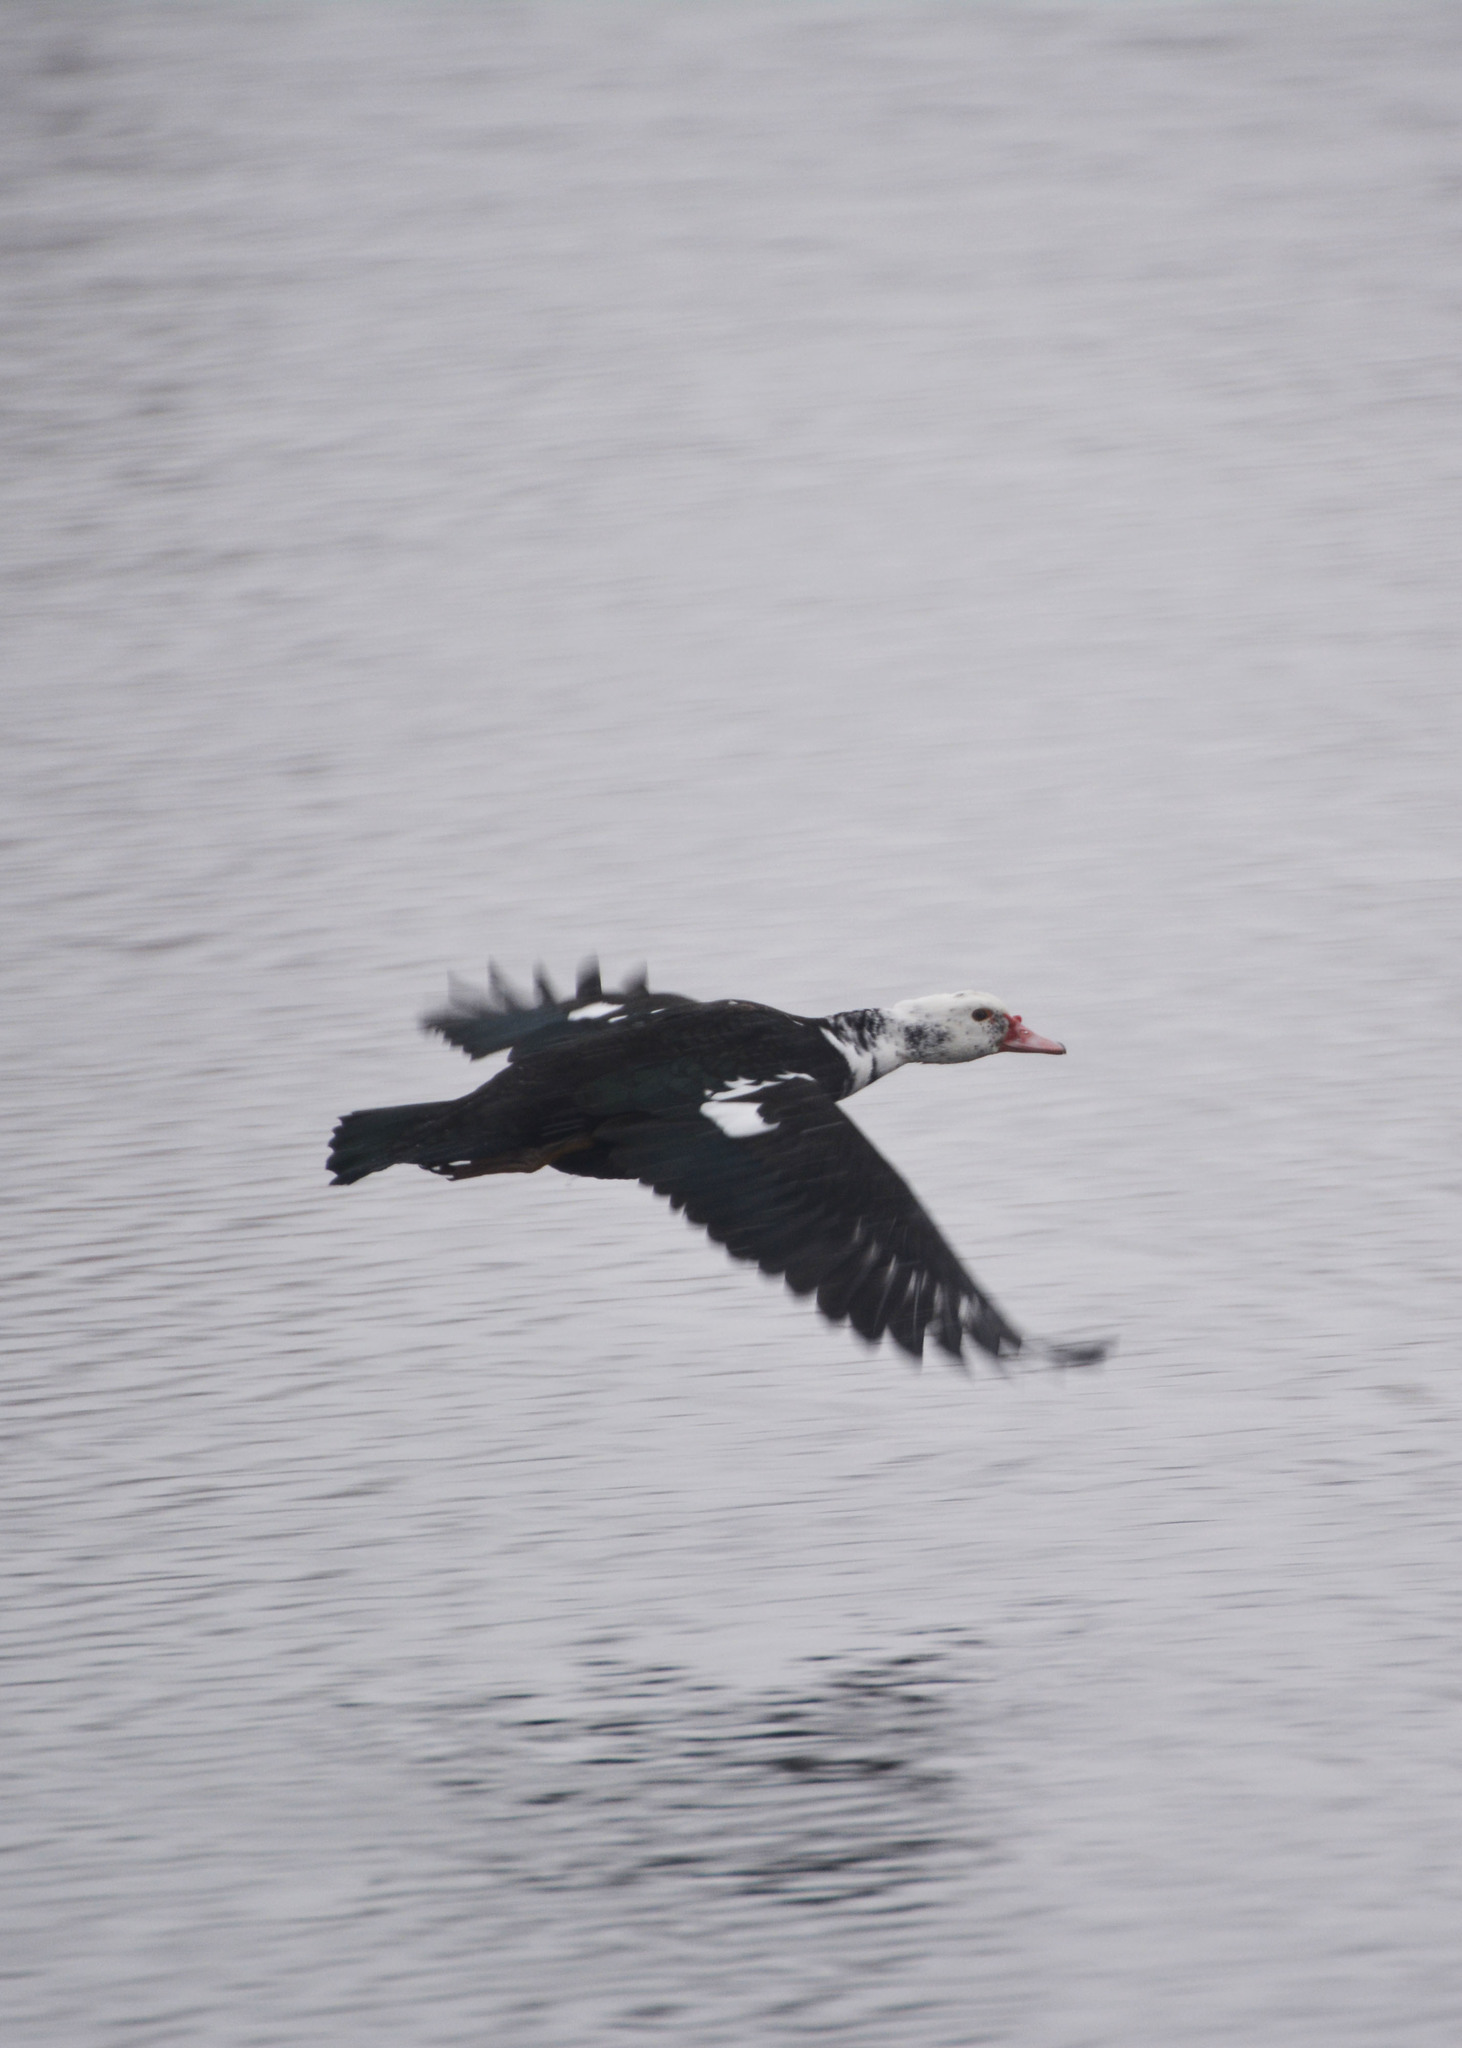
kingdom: Animalia
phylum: Chordata
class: Aves
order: Anseriformes
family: Anatidae
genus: Cairina
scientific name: Cairina moschata
